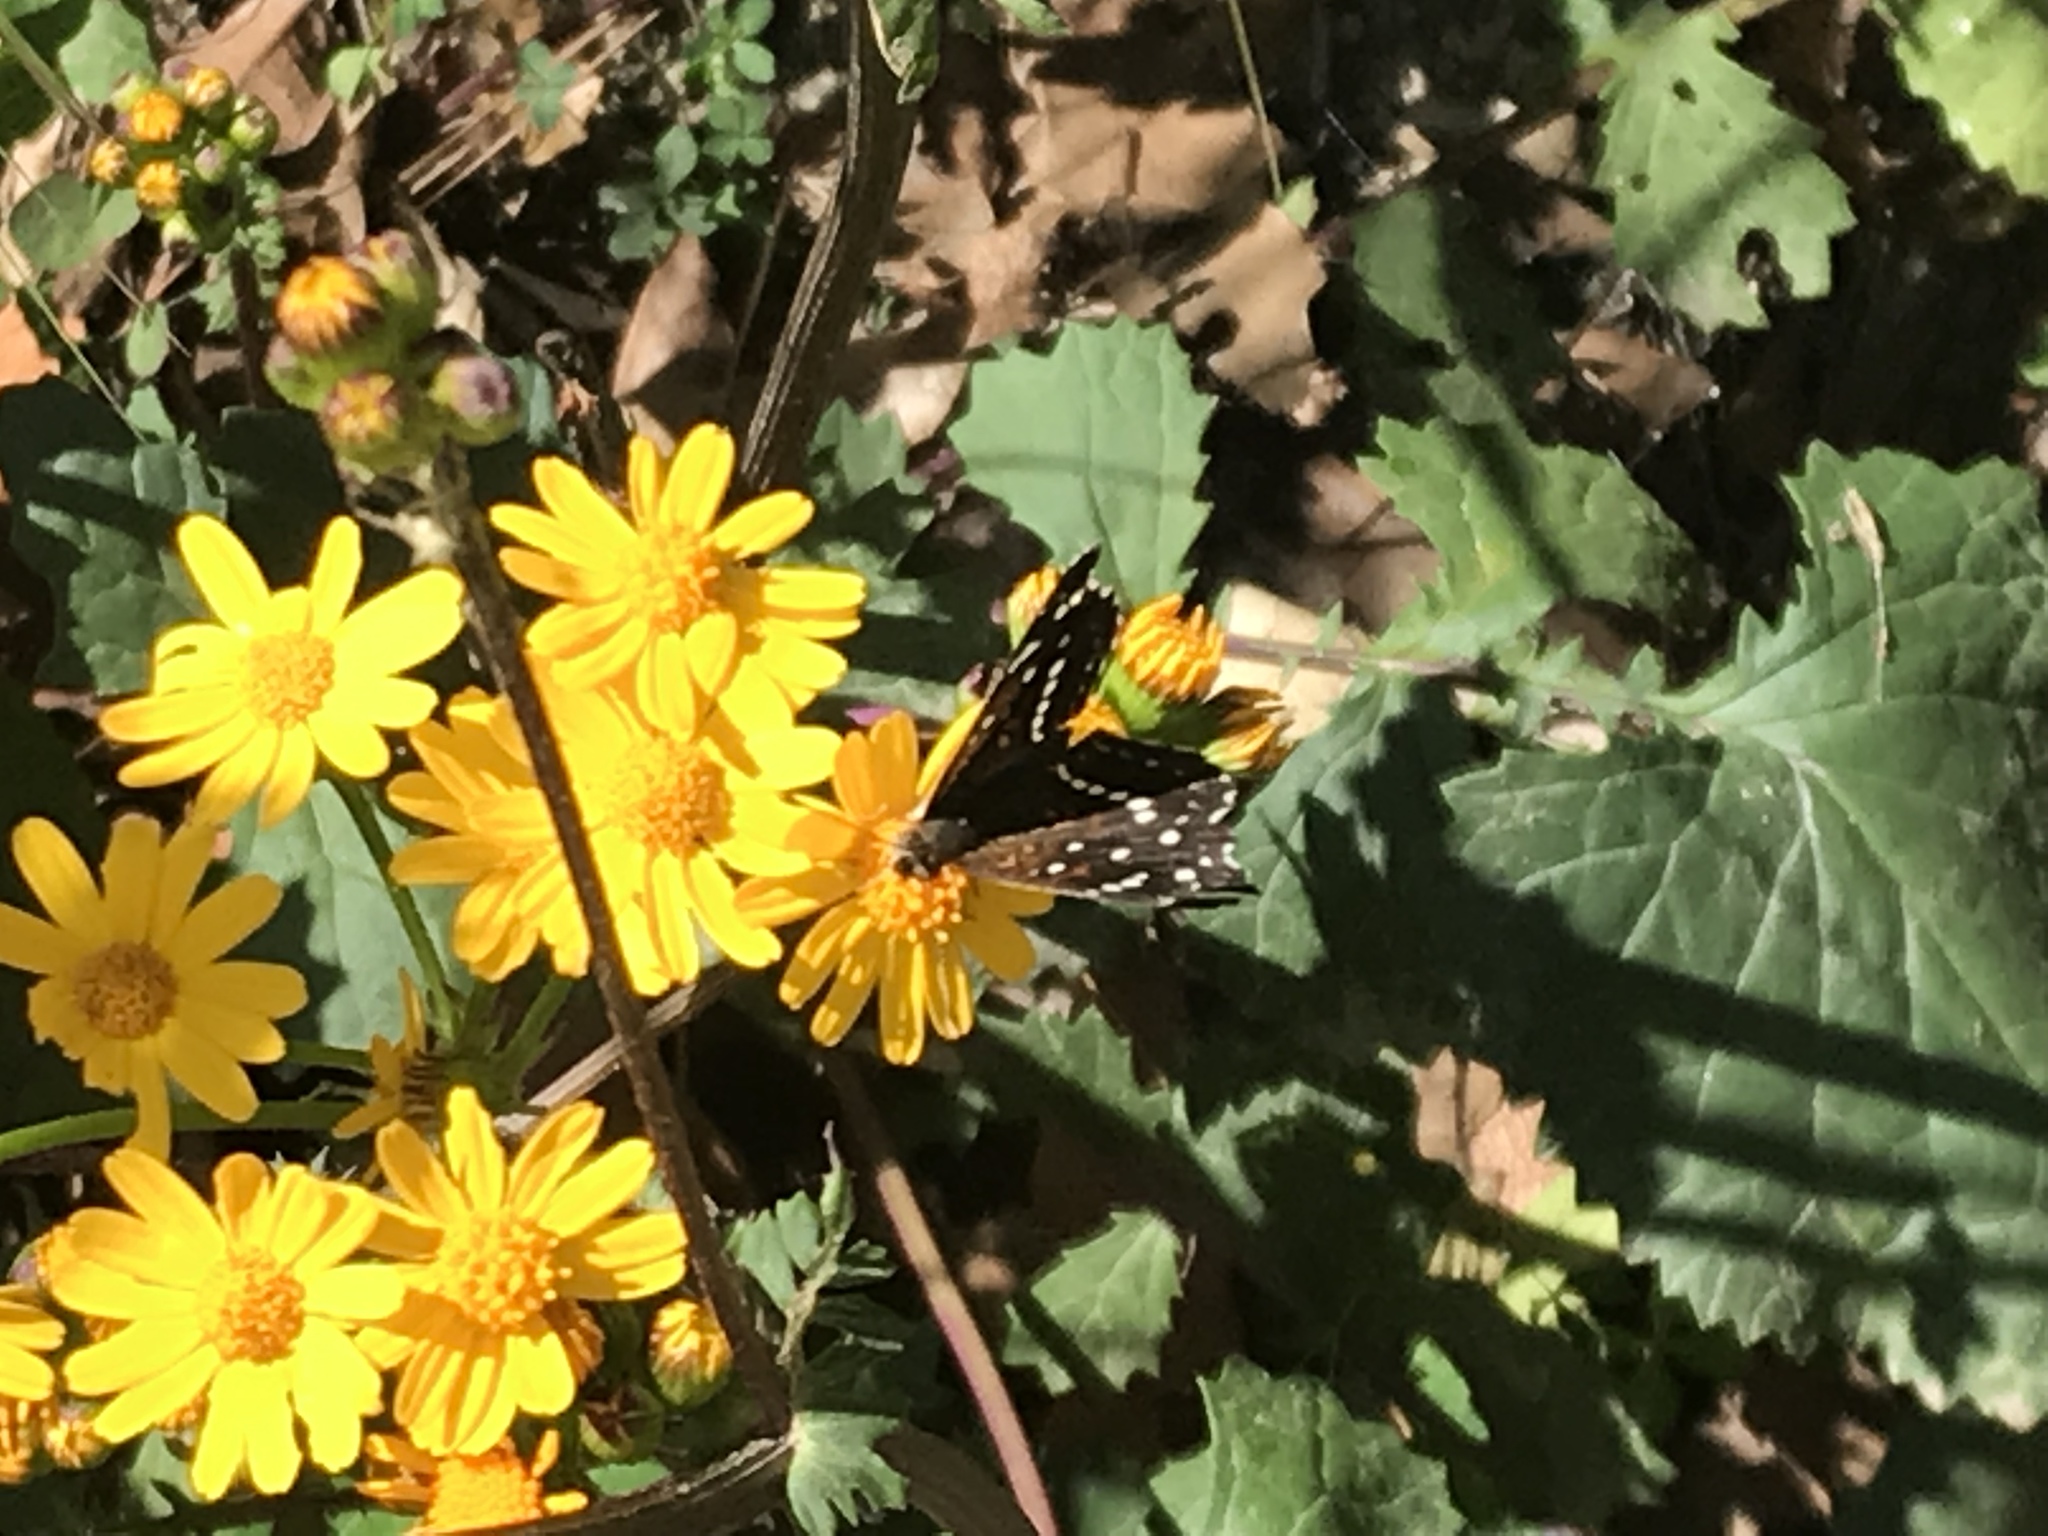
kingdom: Animalia
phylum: Arthropoda
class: Insecta
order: Lepidoptera
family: Nymphalidae
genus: Anthanassa
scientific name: Anthanassa texana
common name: Texan crescent
